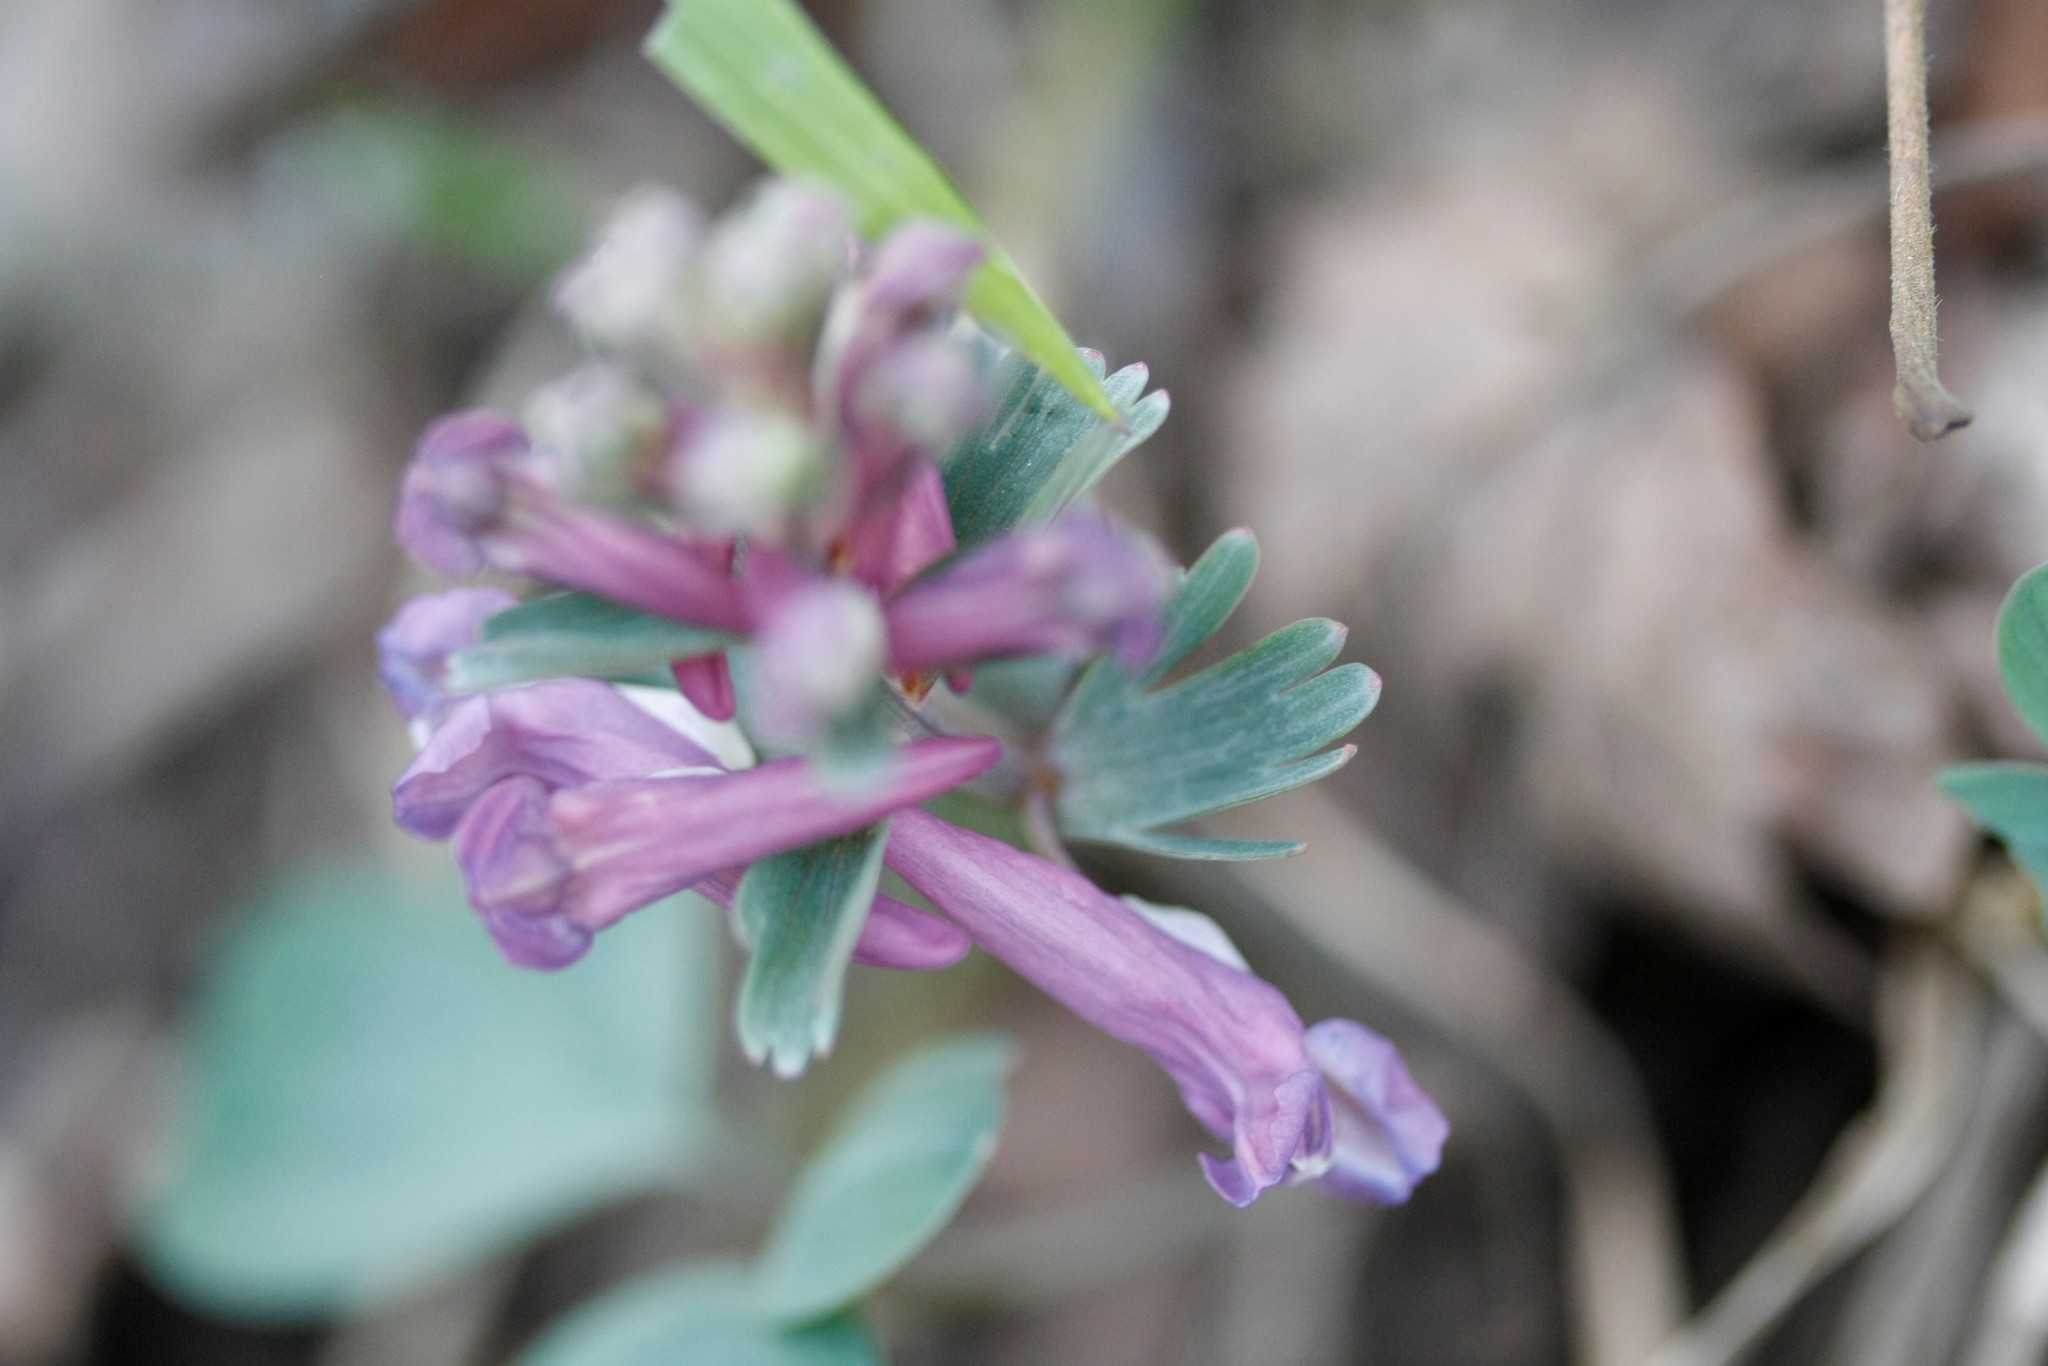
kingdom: Plantae
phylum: Tracheophyta
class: Magnoliopsida
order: Ranunculales
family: Papaveraceae
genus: Corydalis
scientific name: Corydalis solida
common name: Bird-in-a-bush
